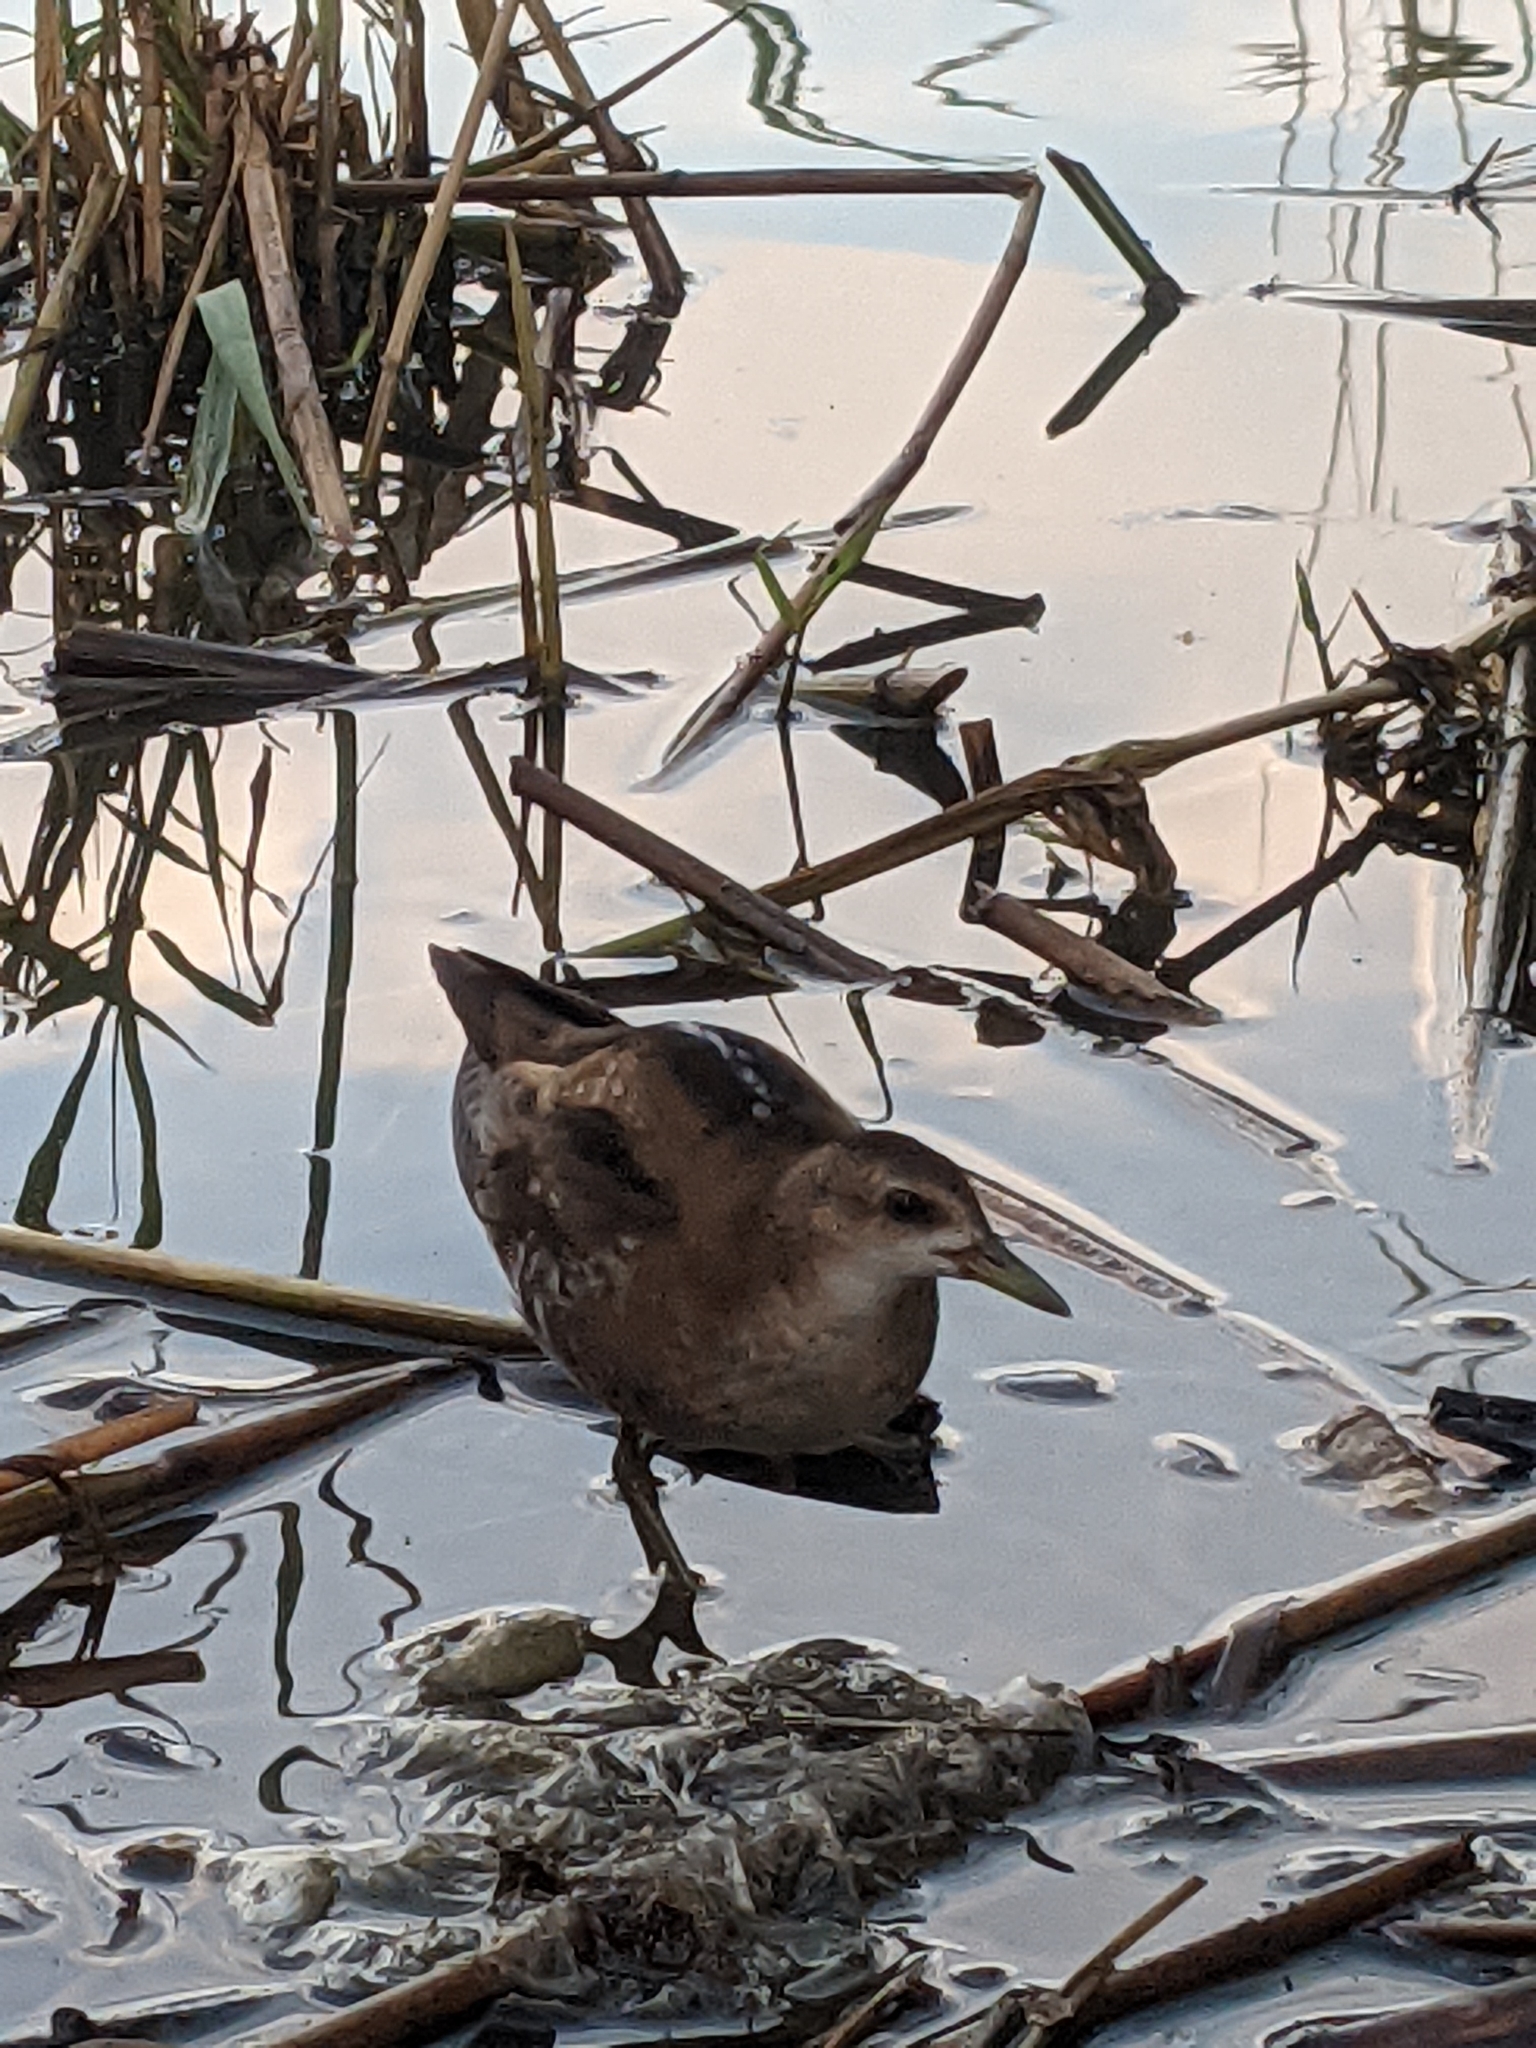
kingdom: Animalia
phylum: Chordata
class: Aves
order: Gruiformes
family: Rallidae
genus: Porzana
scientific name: Porzana parva
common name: Little crake
